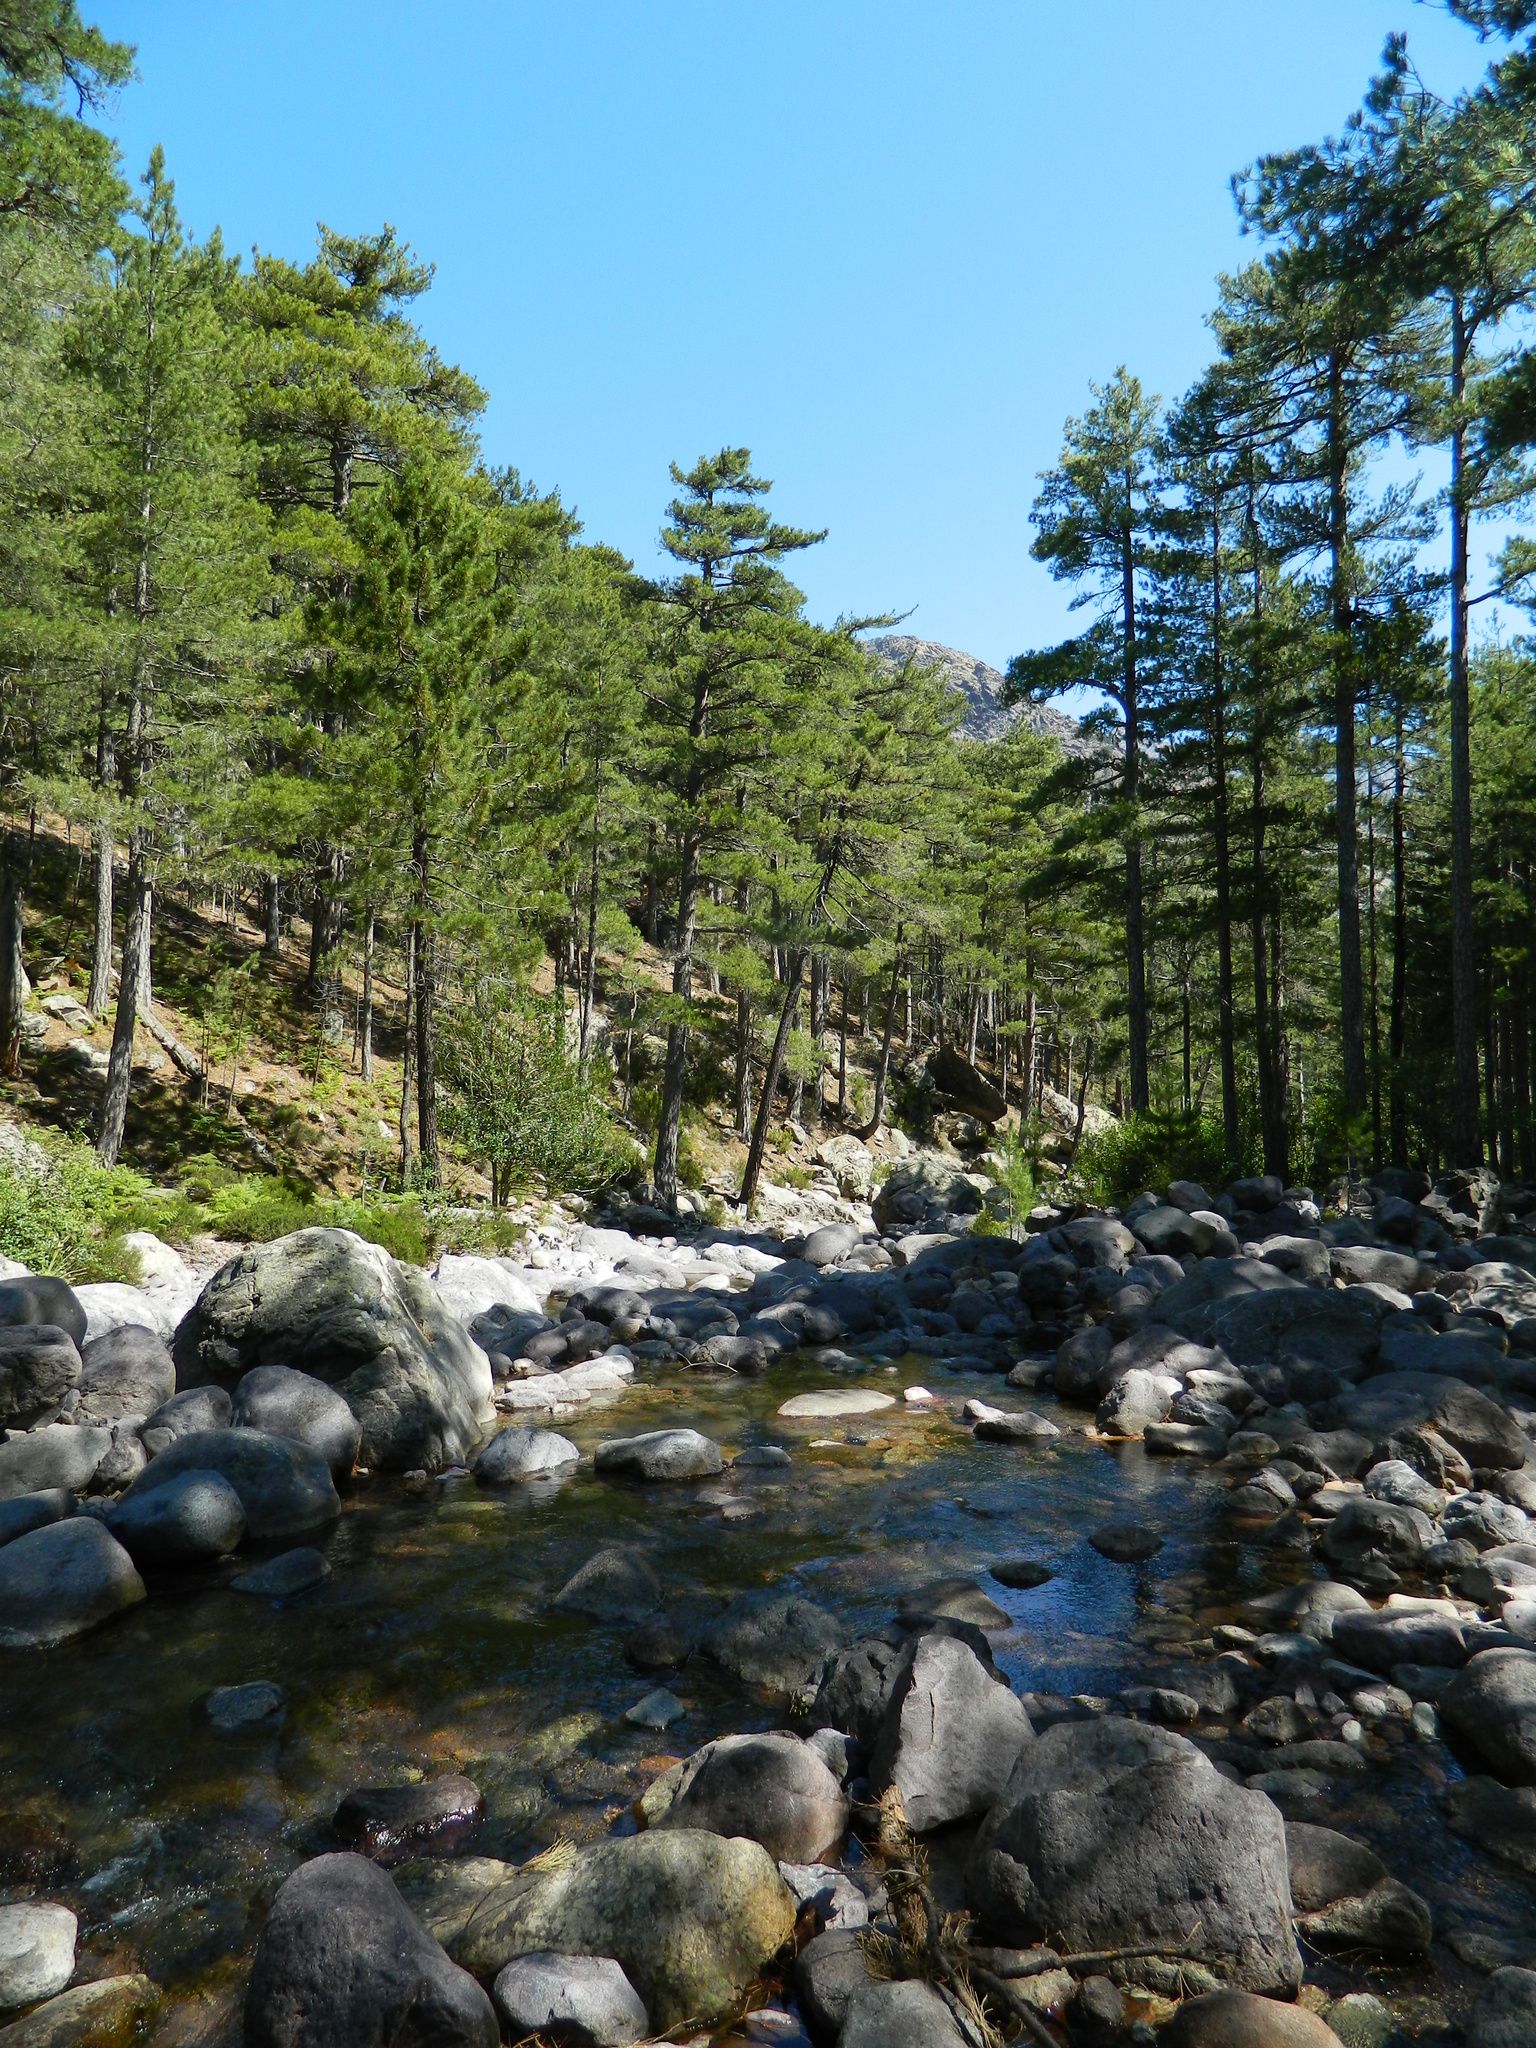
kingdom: Plantae
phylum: Tracheophyta
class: Pinopsida
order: Pinales
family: Pinaceae
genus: Pinus
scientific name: Pinus nigra
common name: Austrian pine
